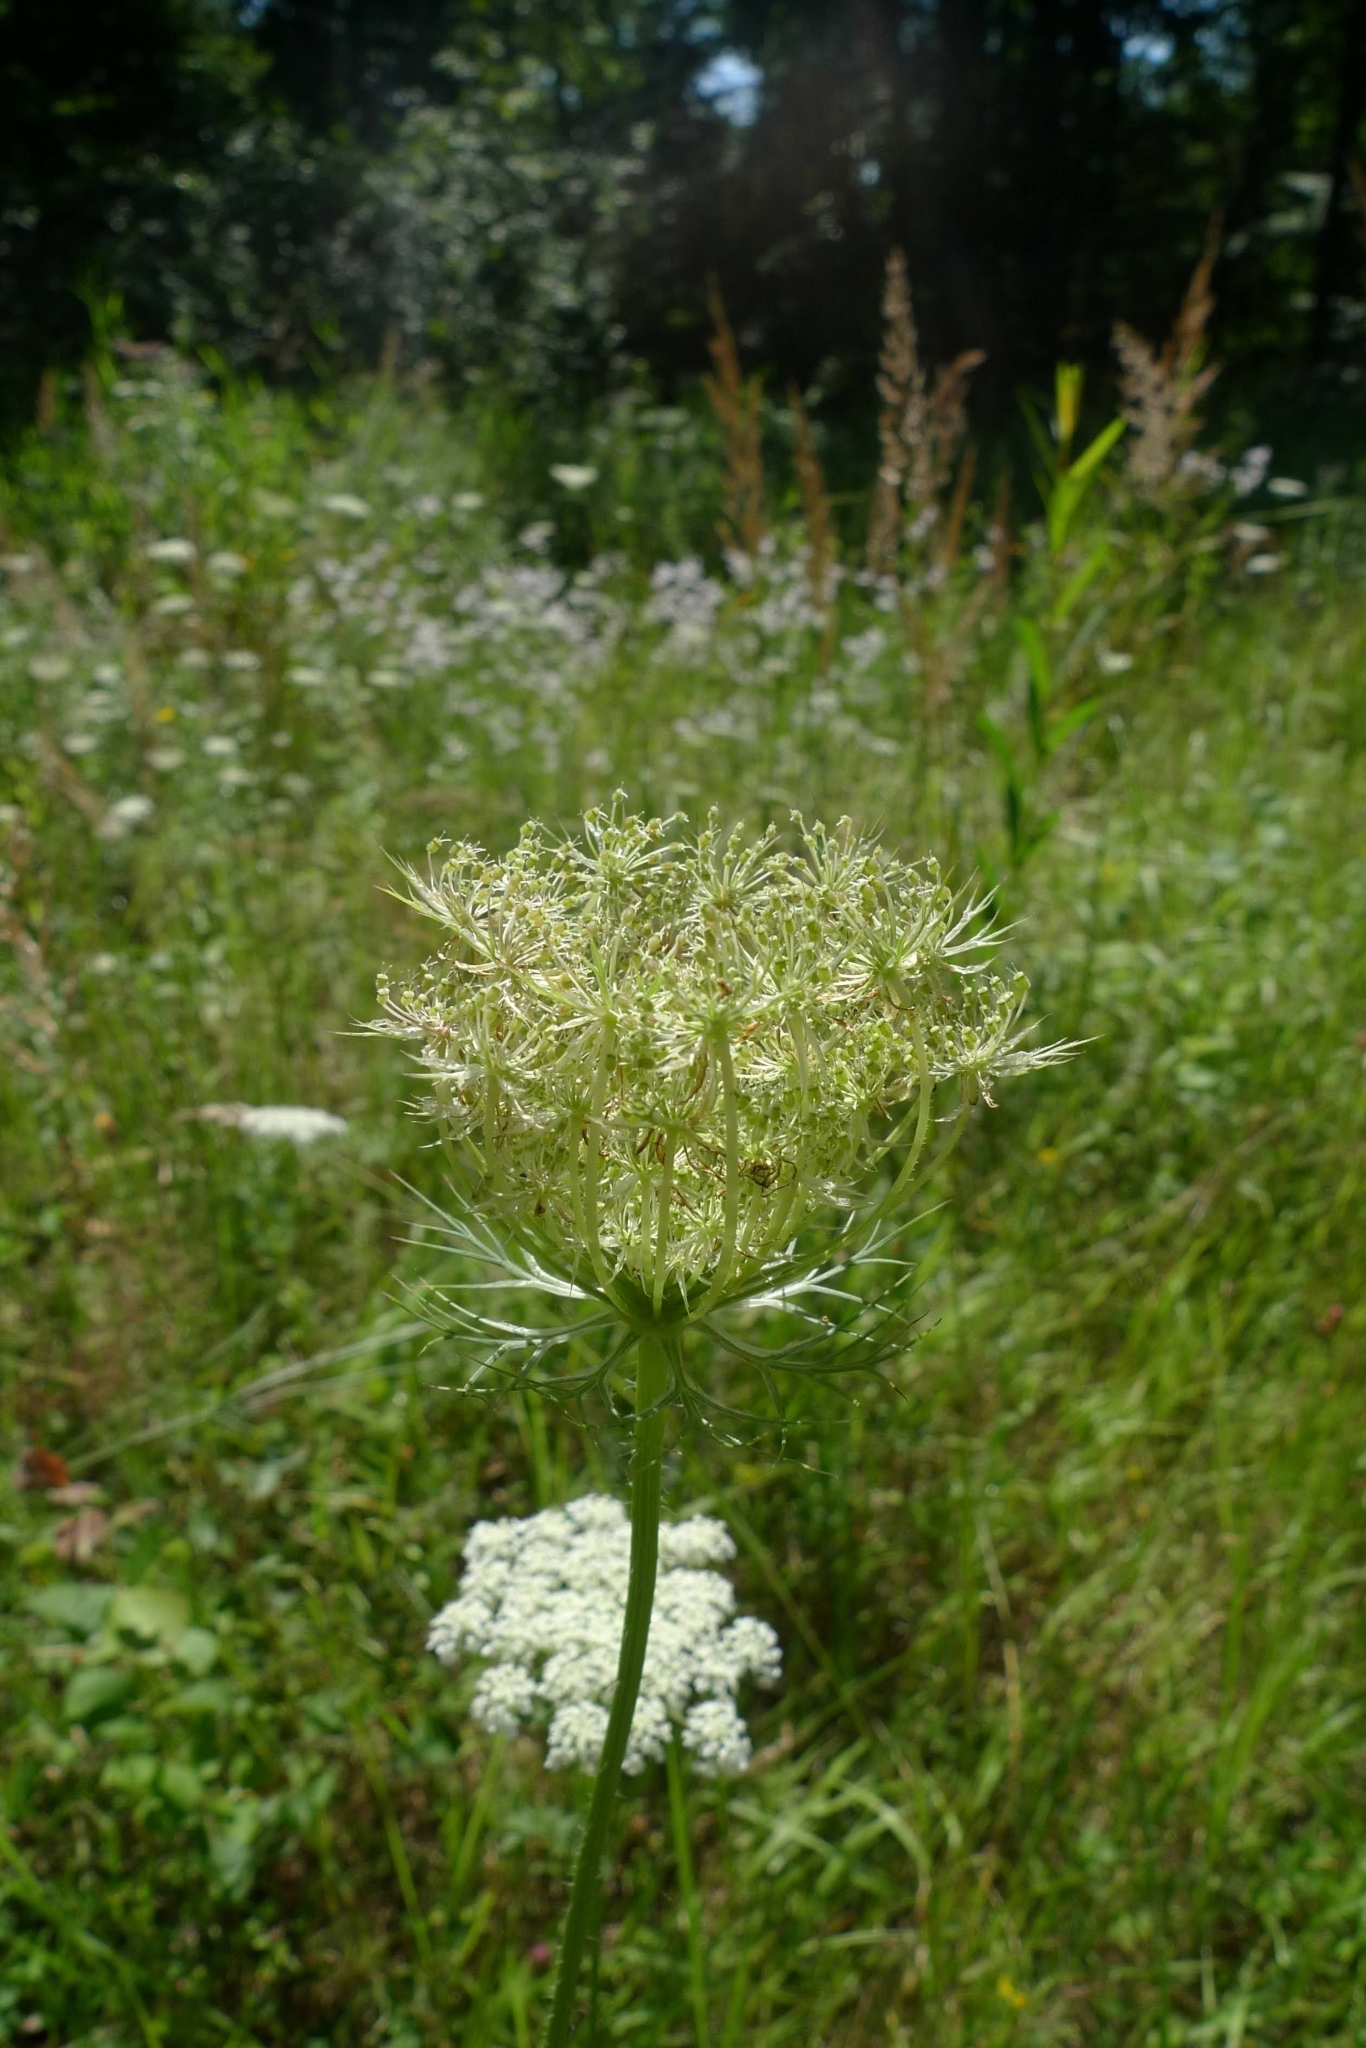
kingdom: Plantae
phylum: Tracheophyta
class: Magnoliopsida
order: Apiales
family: Apiaceae
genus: Daucus
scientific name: Daucus carota
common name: Wild carrot
